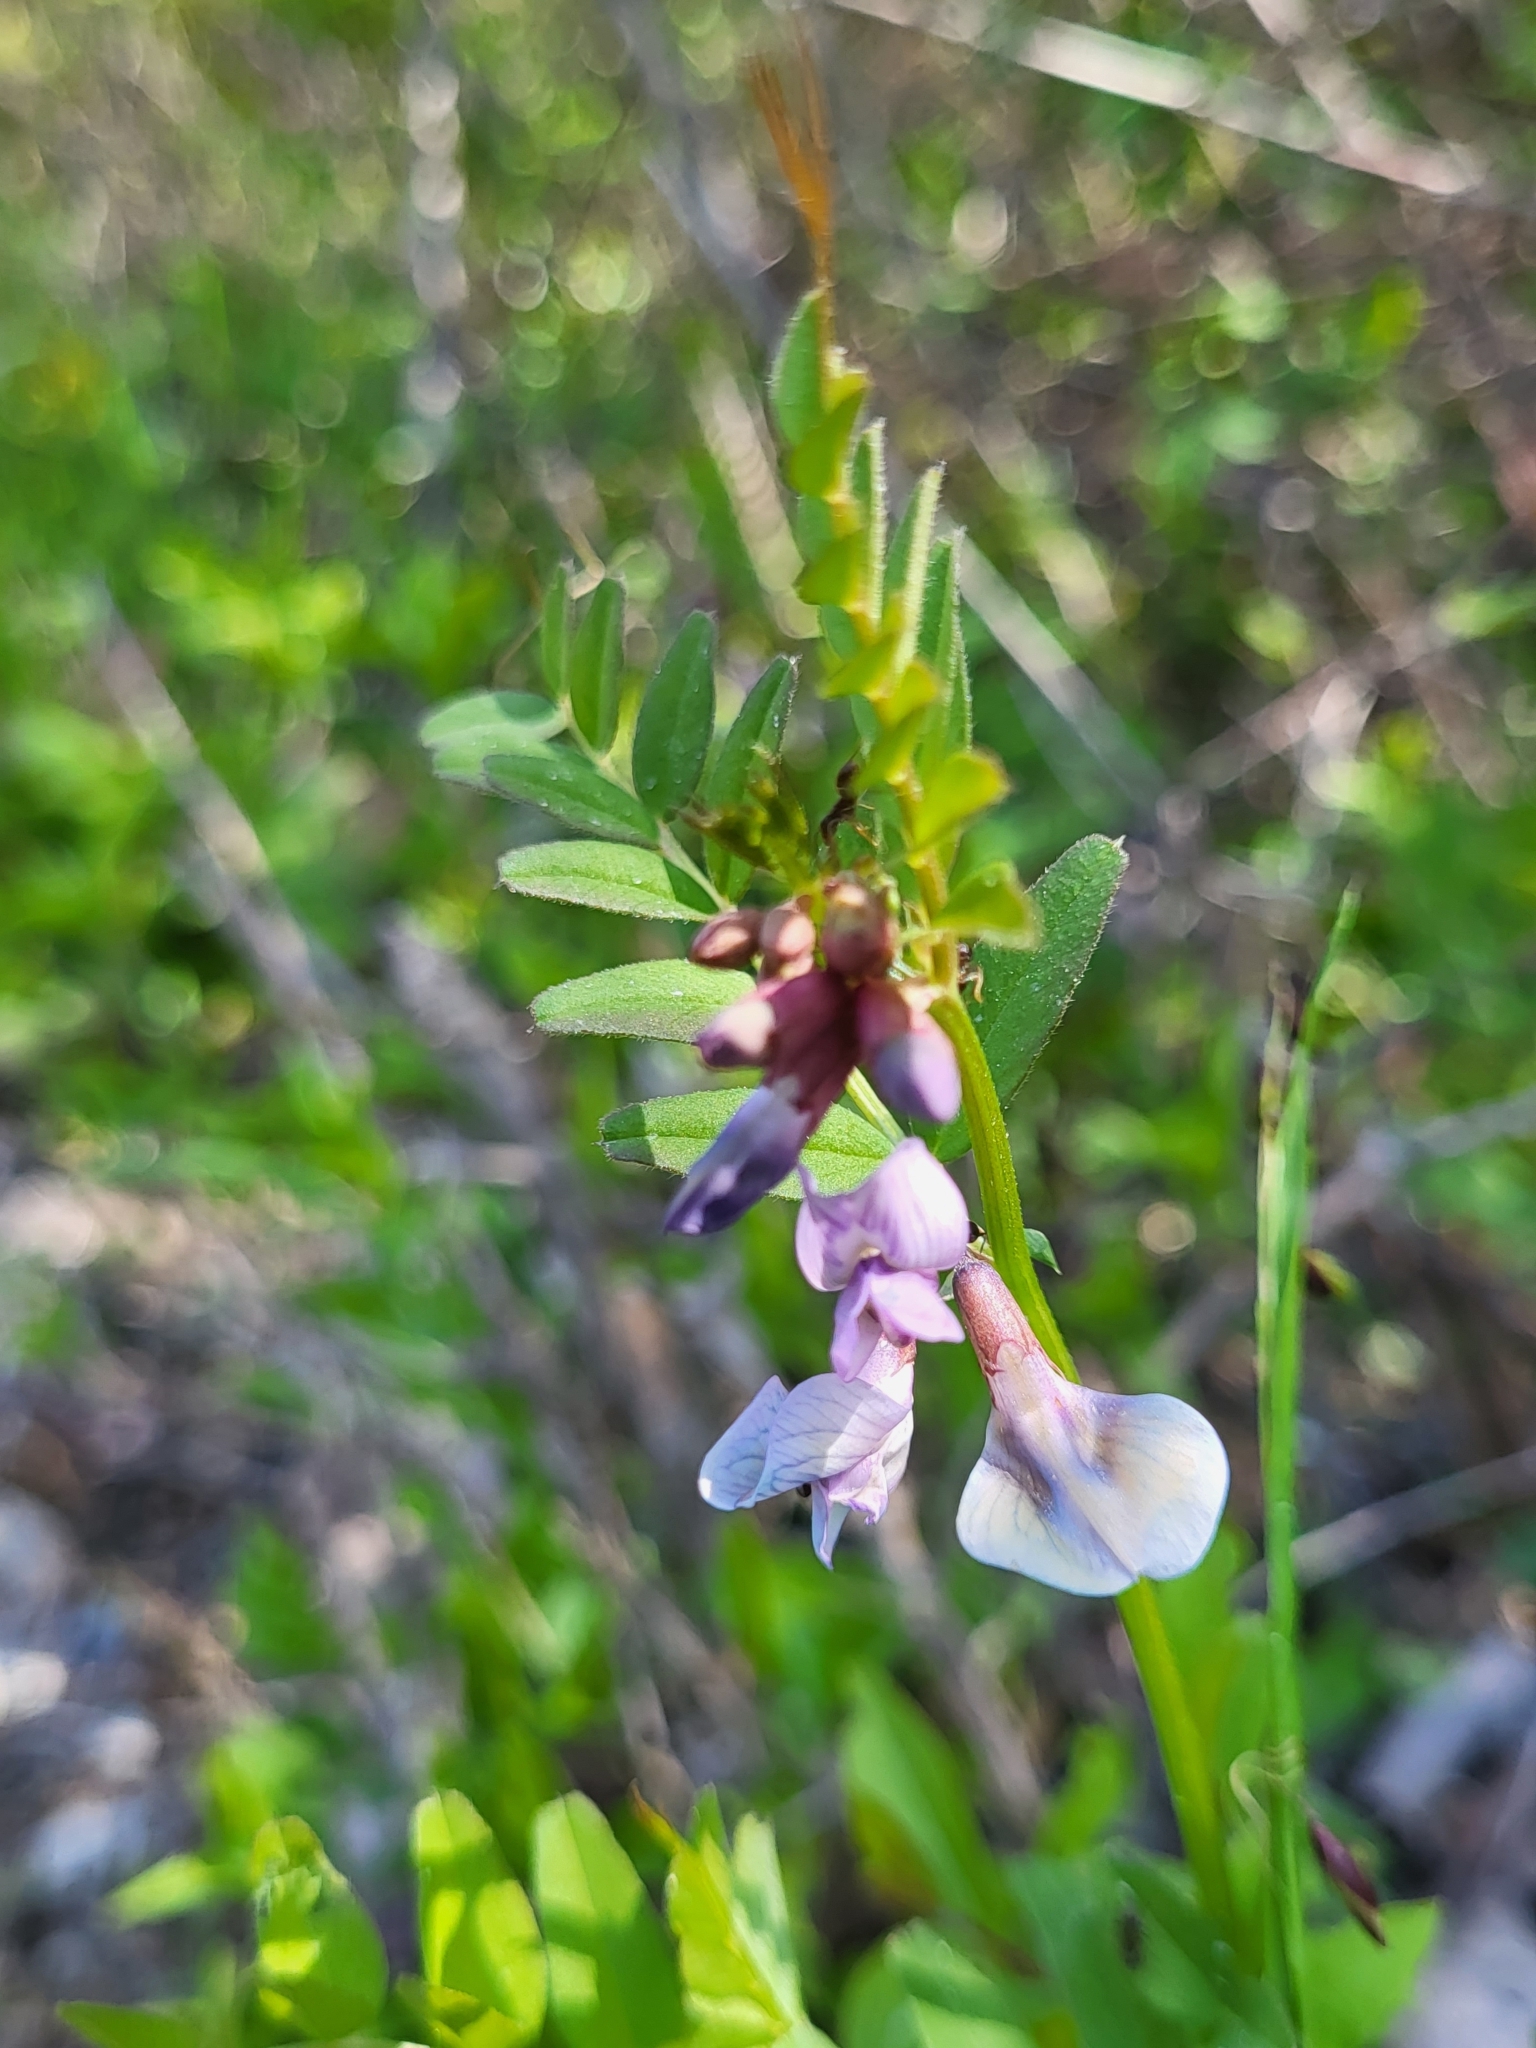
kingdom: Plantae
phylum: Tracheophyta
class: Magnoliopsida
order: Fabales
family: Fabaceae
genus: Vicia
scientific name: Vicia sepium
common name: Bush vetch
